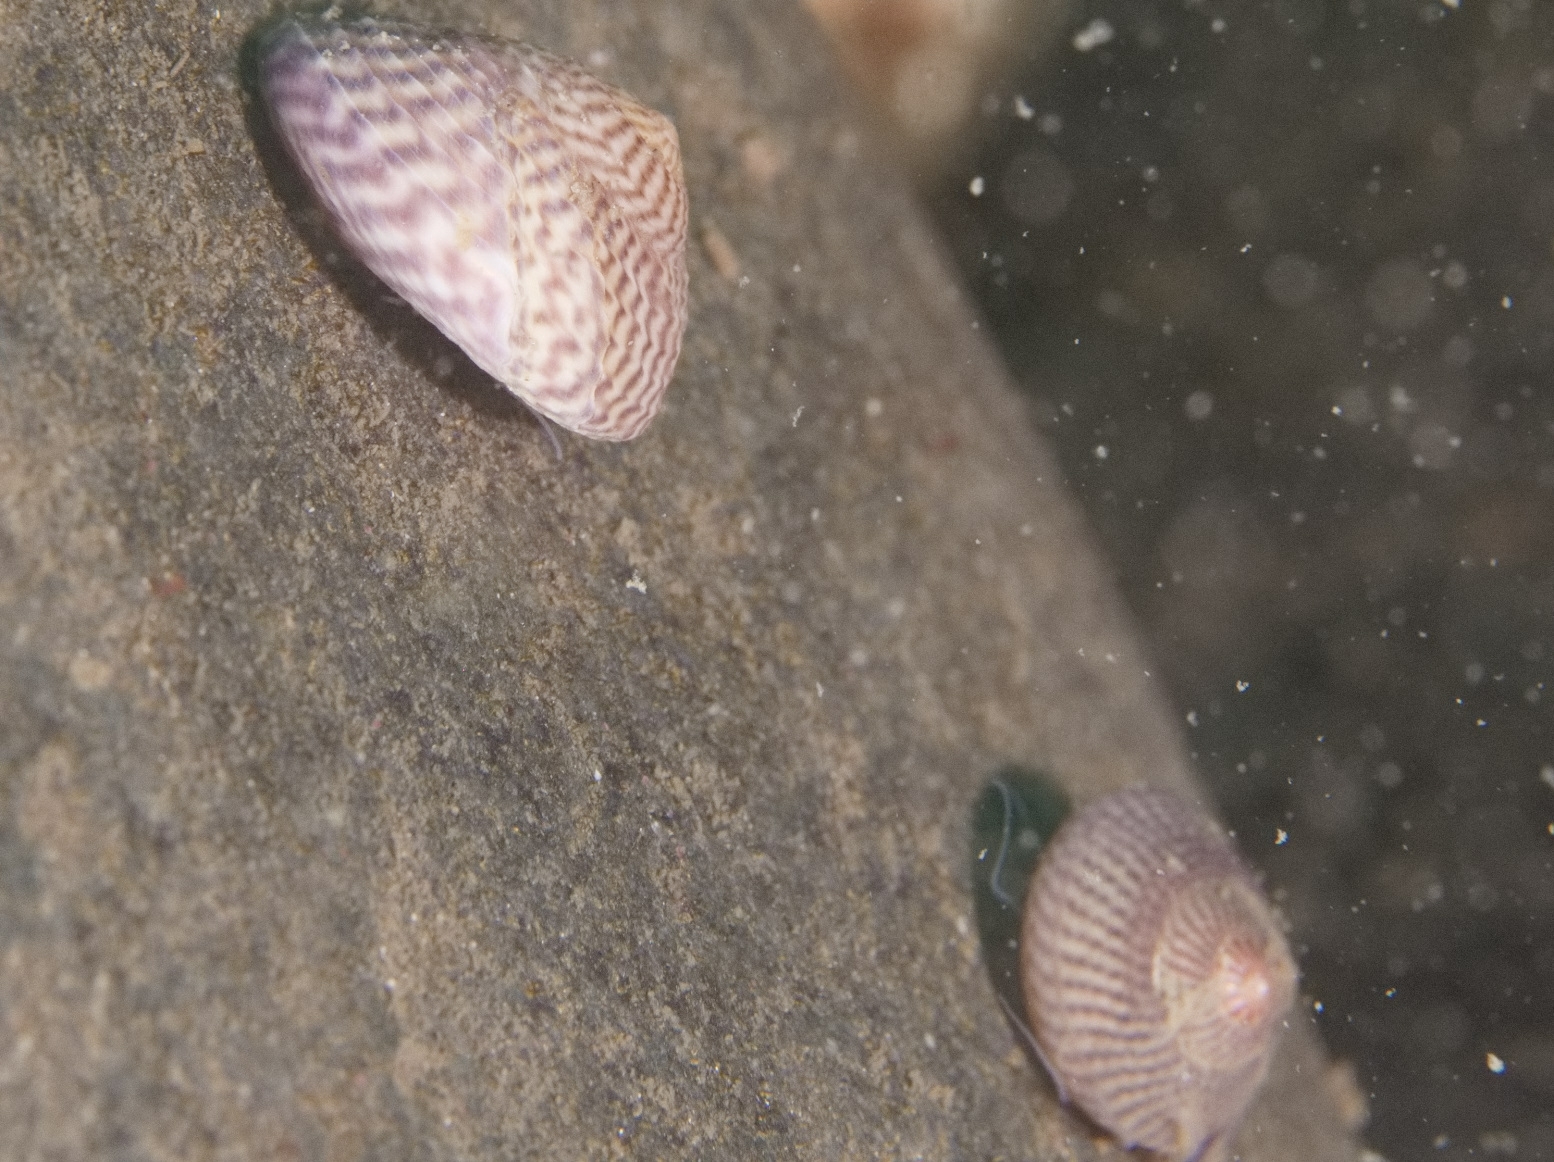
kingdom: Animalia
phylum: Mollusca
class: Gastropoda
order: Trochida
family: Trochidae
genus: Steromphala
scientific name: Steromphala cineraria
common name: Grey top shell
